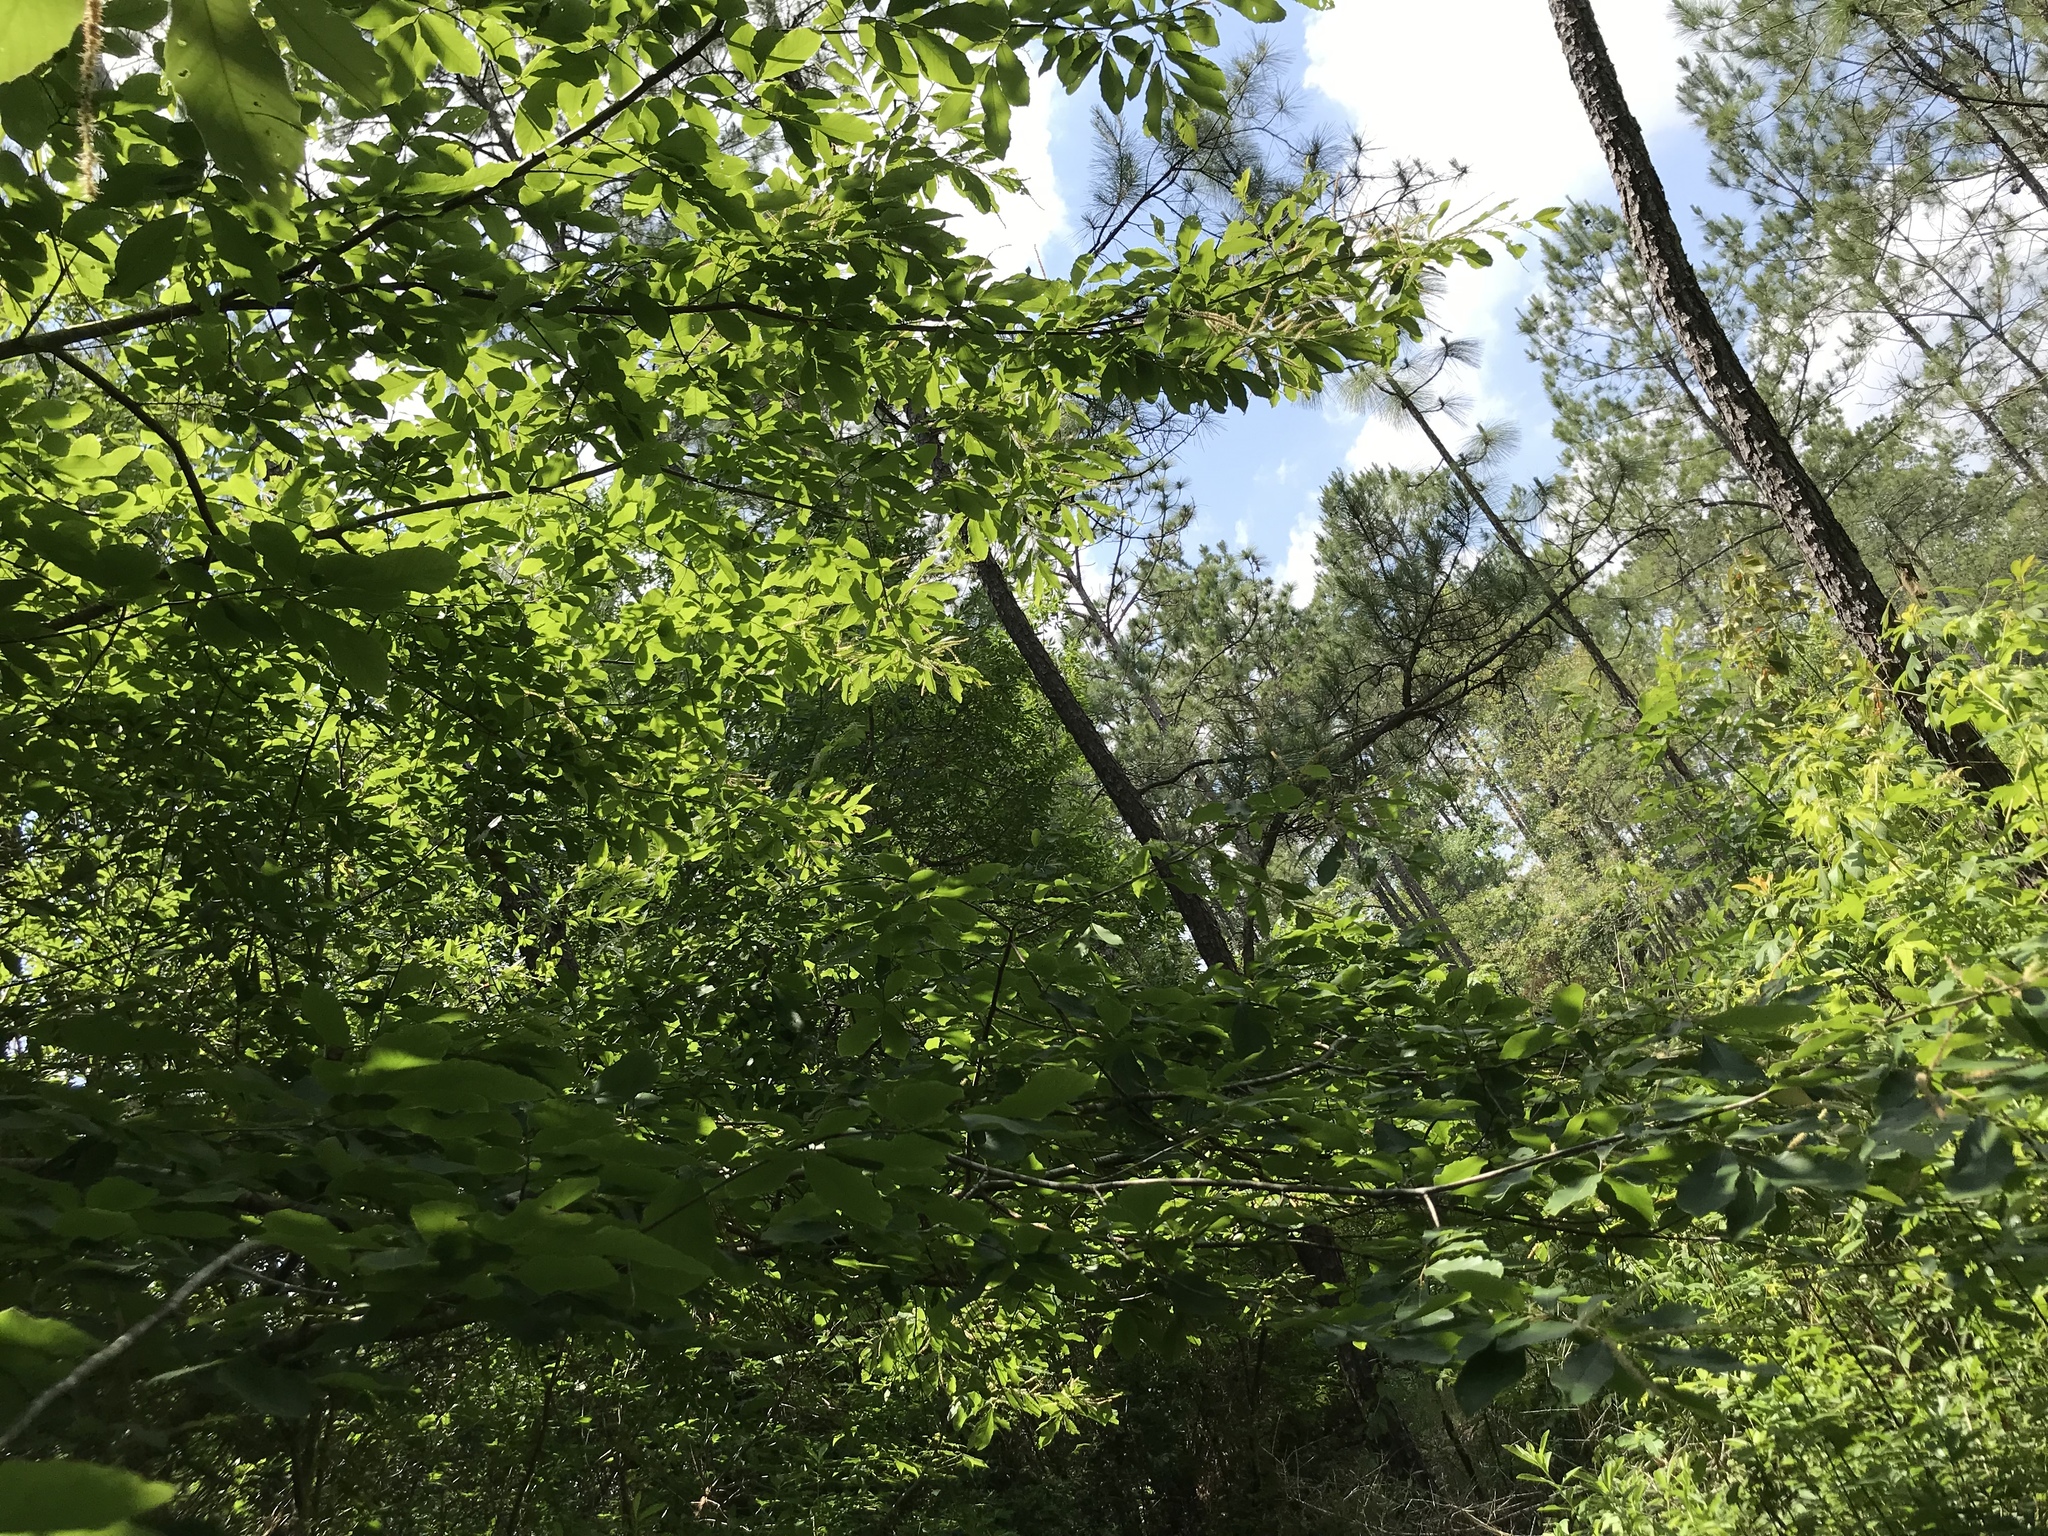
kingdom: Plantae
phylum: Tracheophyta
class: Magnoliopsida
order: Fagales
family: Fagaceae
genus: Castanea
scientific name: Castanea pumila
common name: Chinkapin
